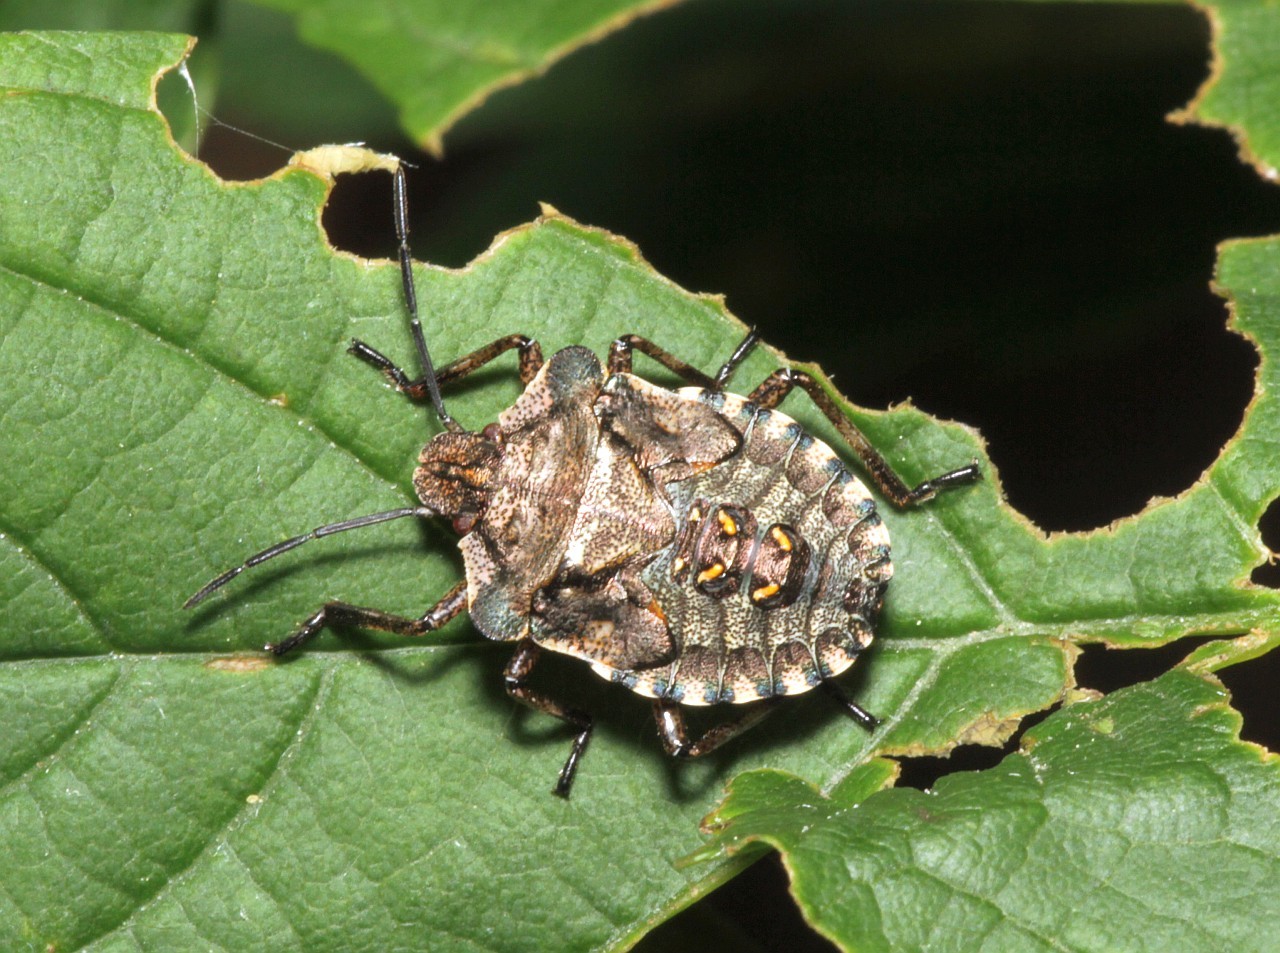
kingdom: Animalia
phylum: Arthropoda
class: Insecta
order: Hemiptera
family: Pentatomidae
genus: Pentatoma
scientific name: Pentatoma rufipes
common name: Forest bug
